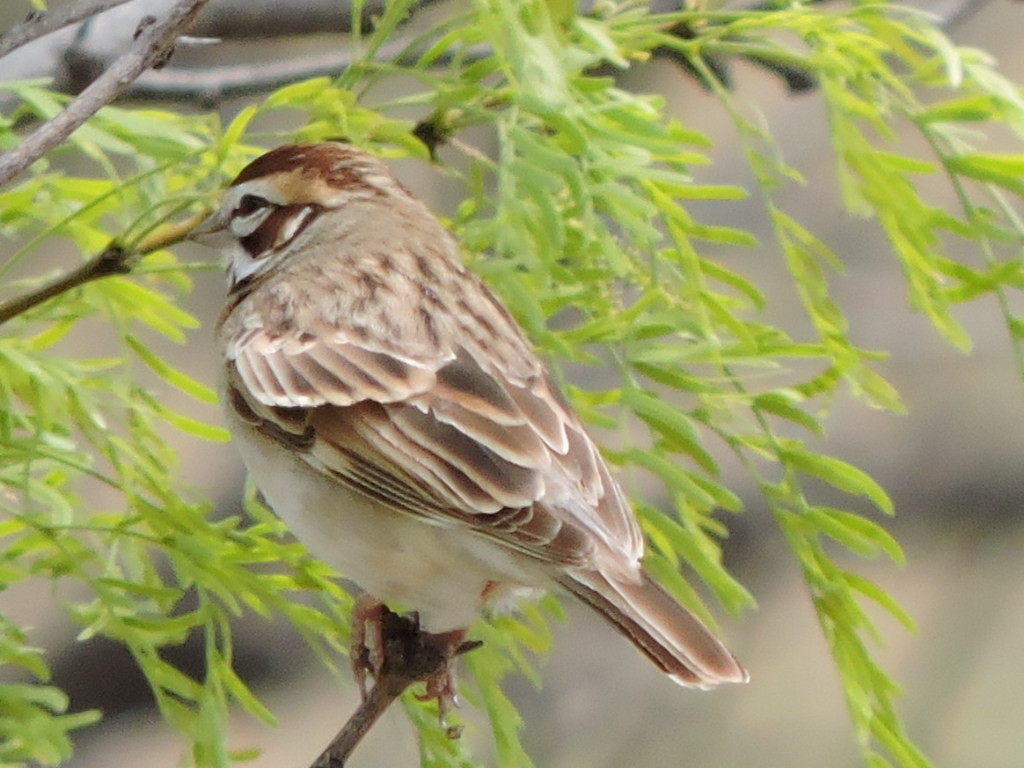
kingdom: Animalia
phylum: Chordata
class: Aves
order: Passeriformes
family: Passerellidae
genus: Chondestes
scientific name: Chondestes grammacus
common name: Lark sparrow
